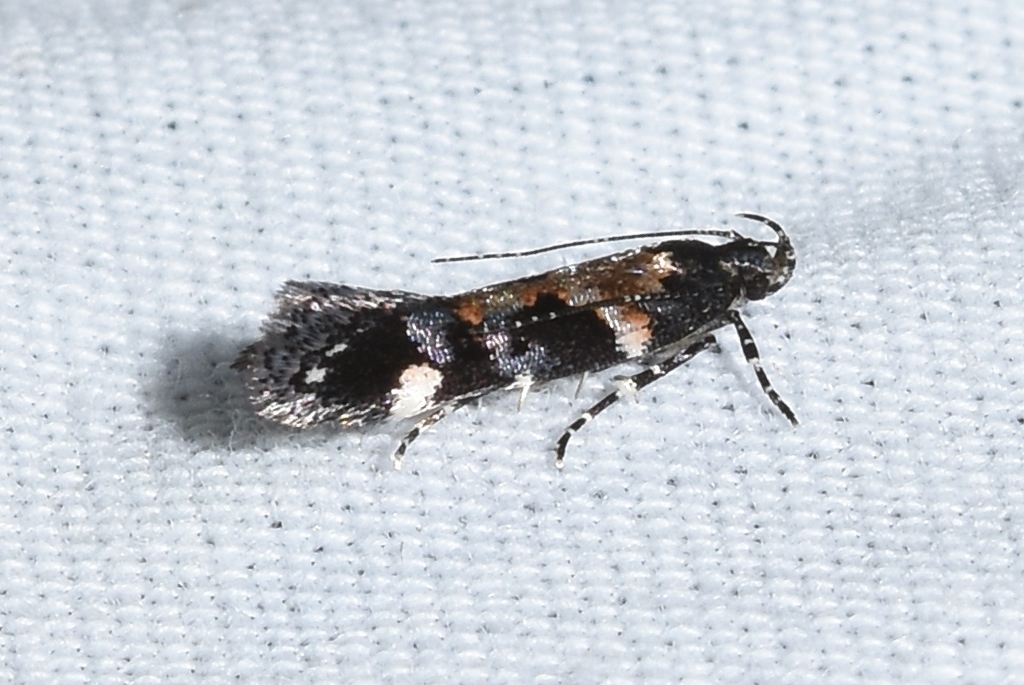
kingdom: Animalia
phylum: Arthropoda
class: Insecta
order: Lepidoptera
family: Gelechiidae
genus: Stegasta
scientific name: Stegasta bosqueella
